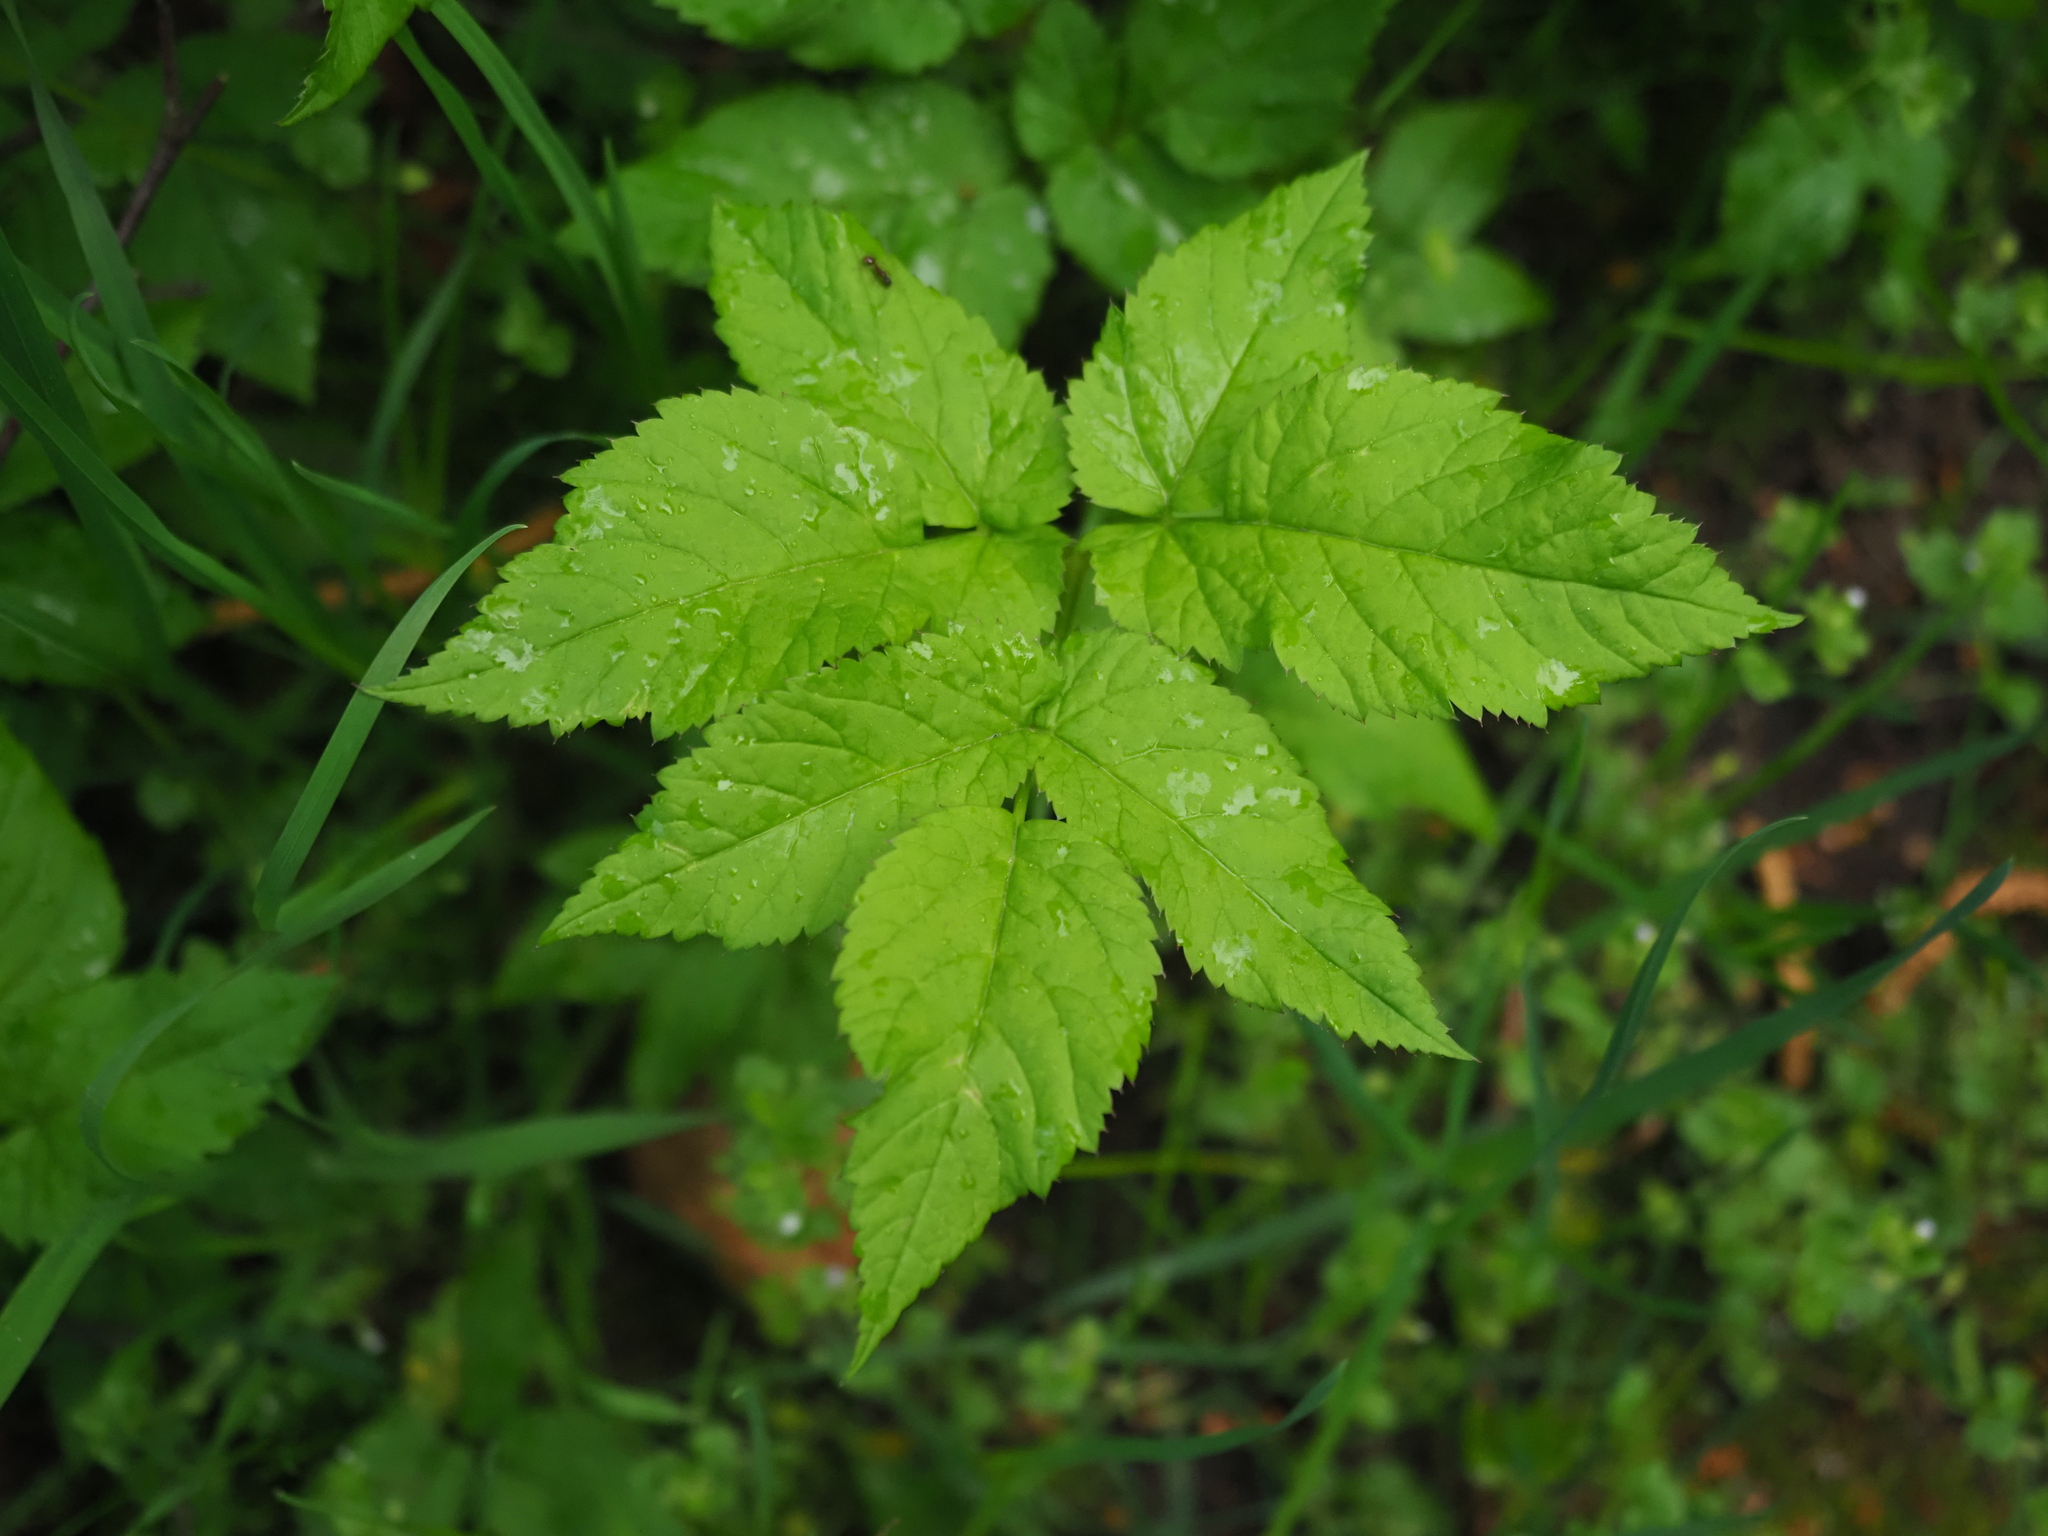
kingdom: Plantae
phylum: Tracheophyta
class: Magnoliopsida
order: Apiales
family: Apiaceae
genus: Aegopodium
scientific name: Aegopodium podagraria
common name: Ground-elder
